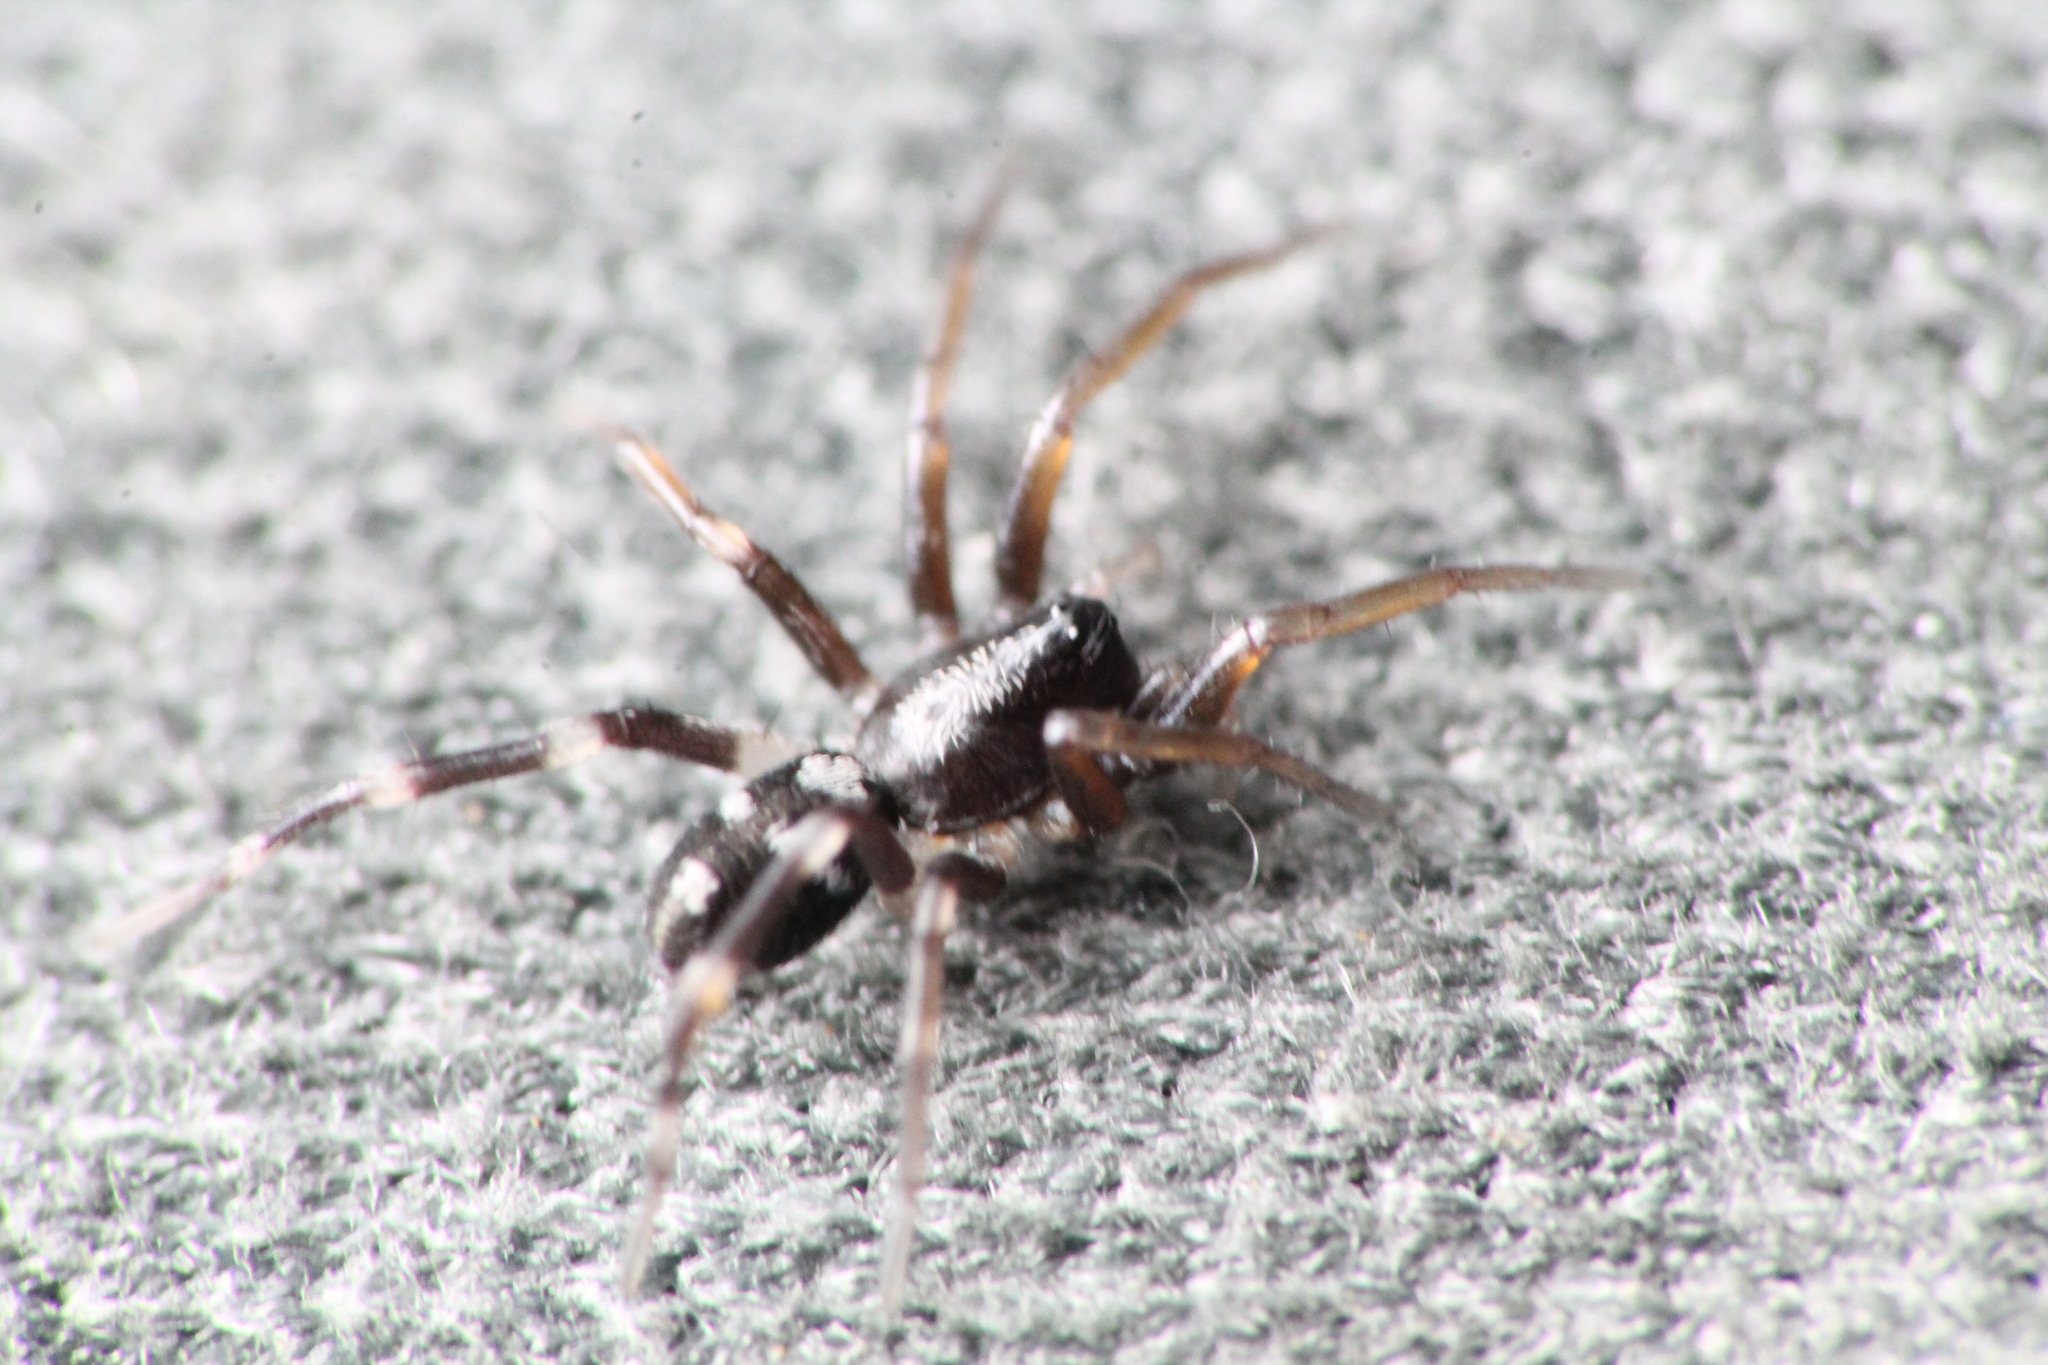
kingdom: Animalia
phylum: Arthropoda
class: Arachnida
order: Araneae
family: Corinnidae
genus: Nyssus
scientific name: Nyssus coloripes
